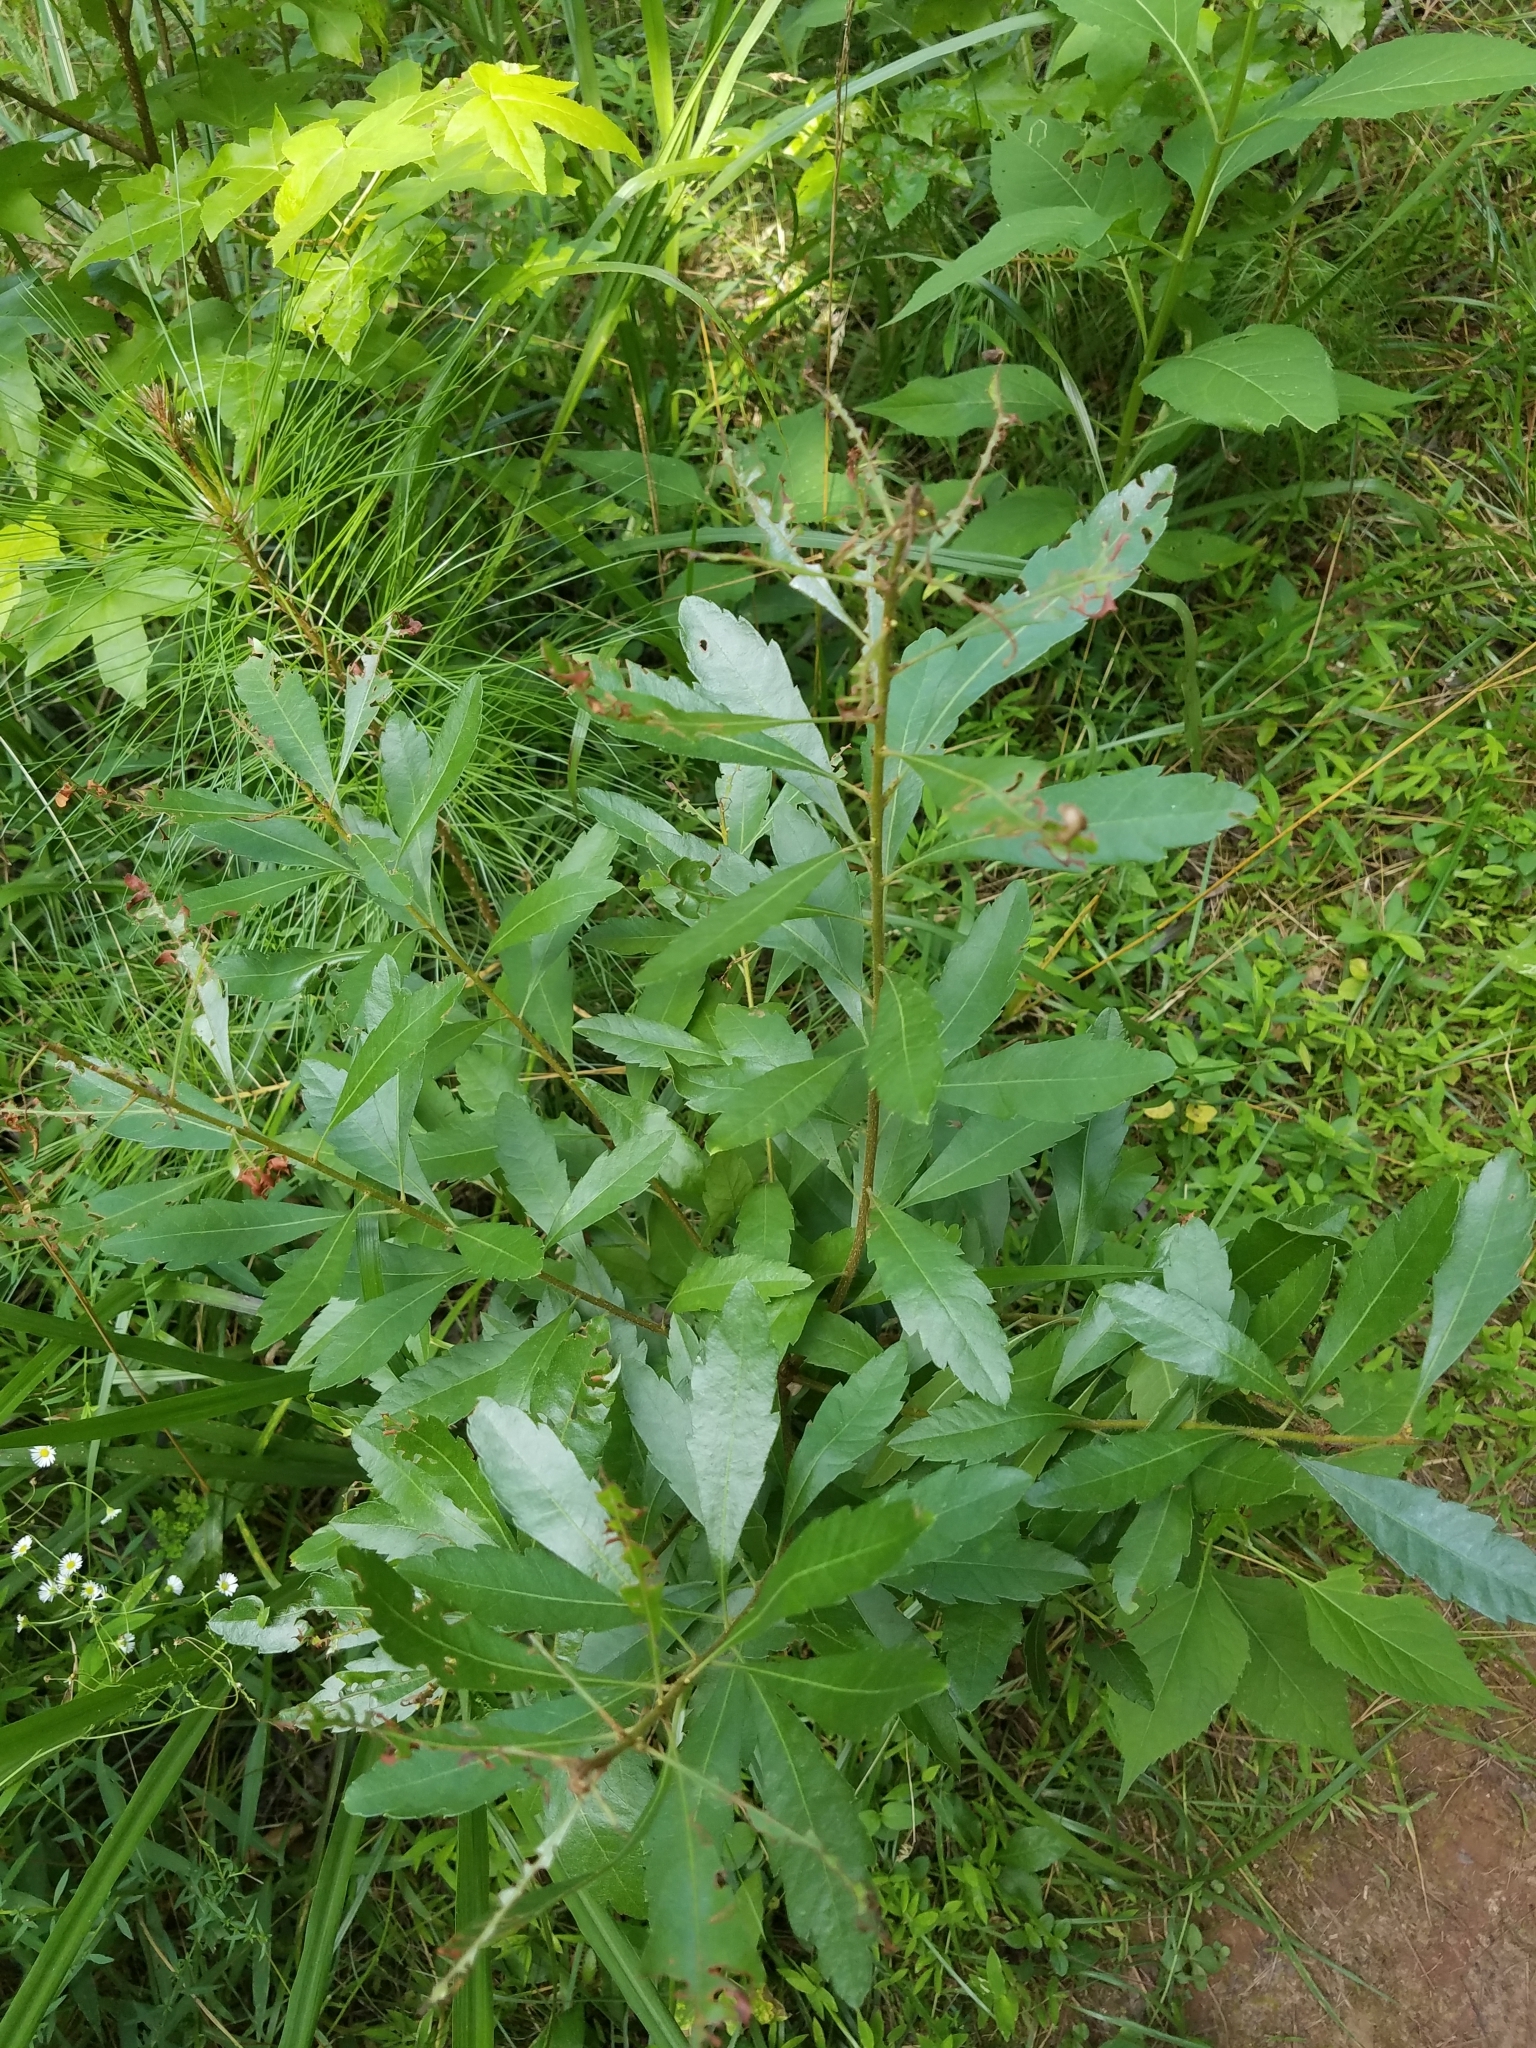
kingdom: Plantae
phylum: Tracheophyta
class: Magnoliopsida
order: Fagales
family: Myricaceae
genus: Morella
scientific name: Morella cerifera
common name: Wax myrtle
